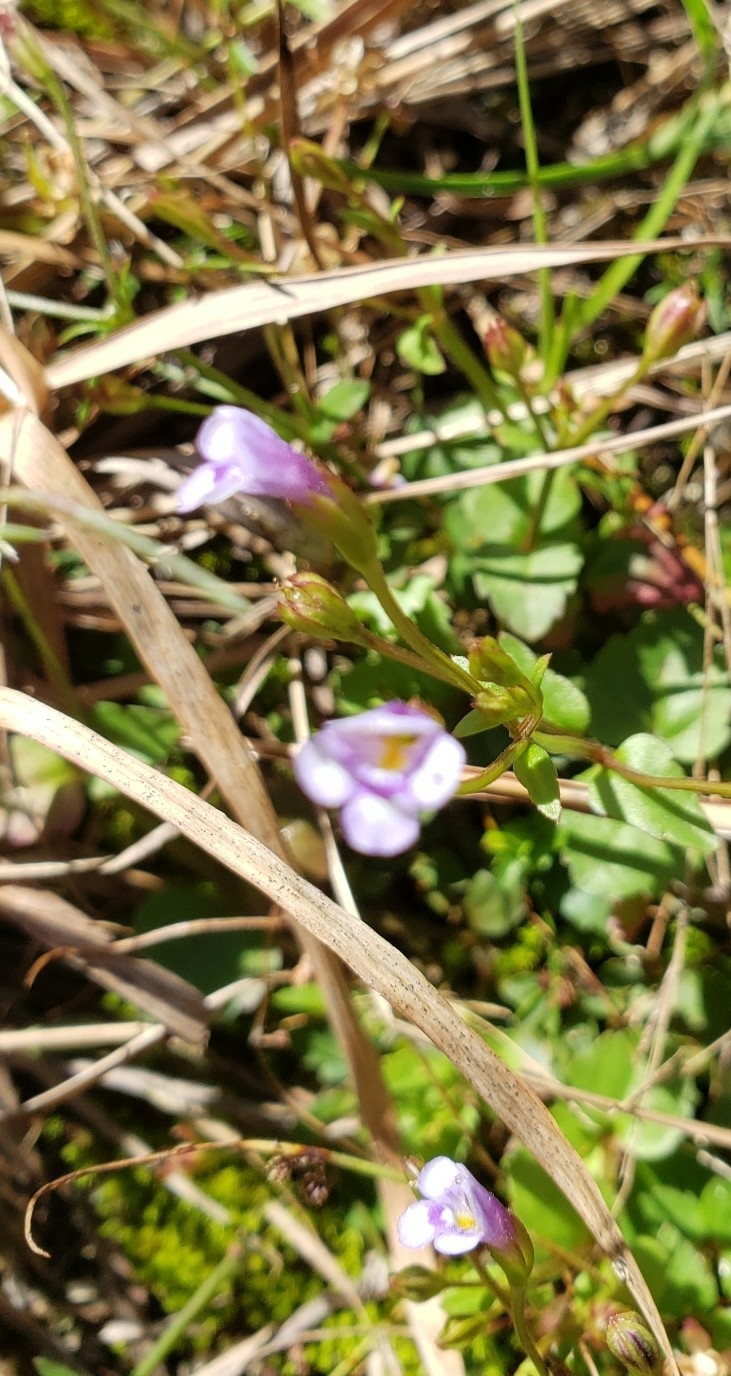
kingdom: Plantae
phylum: Tracheophyta
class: Magnoliopsida
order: Lamiales
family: Linderniaceae
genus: Torenia
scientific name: Torenia crustacea
